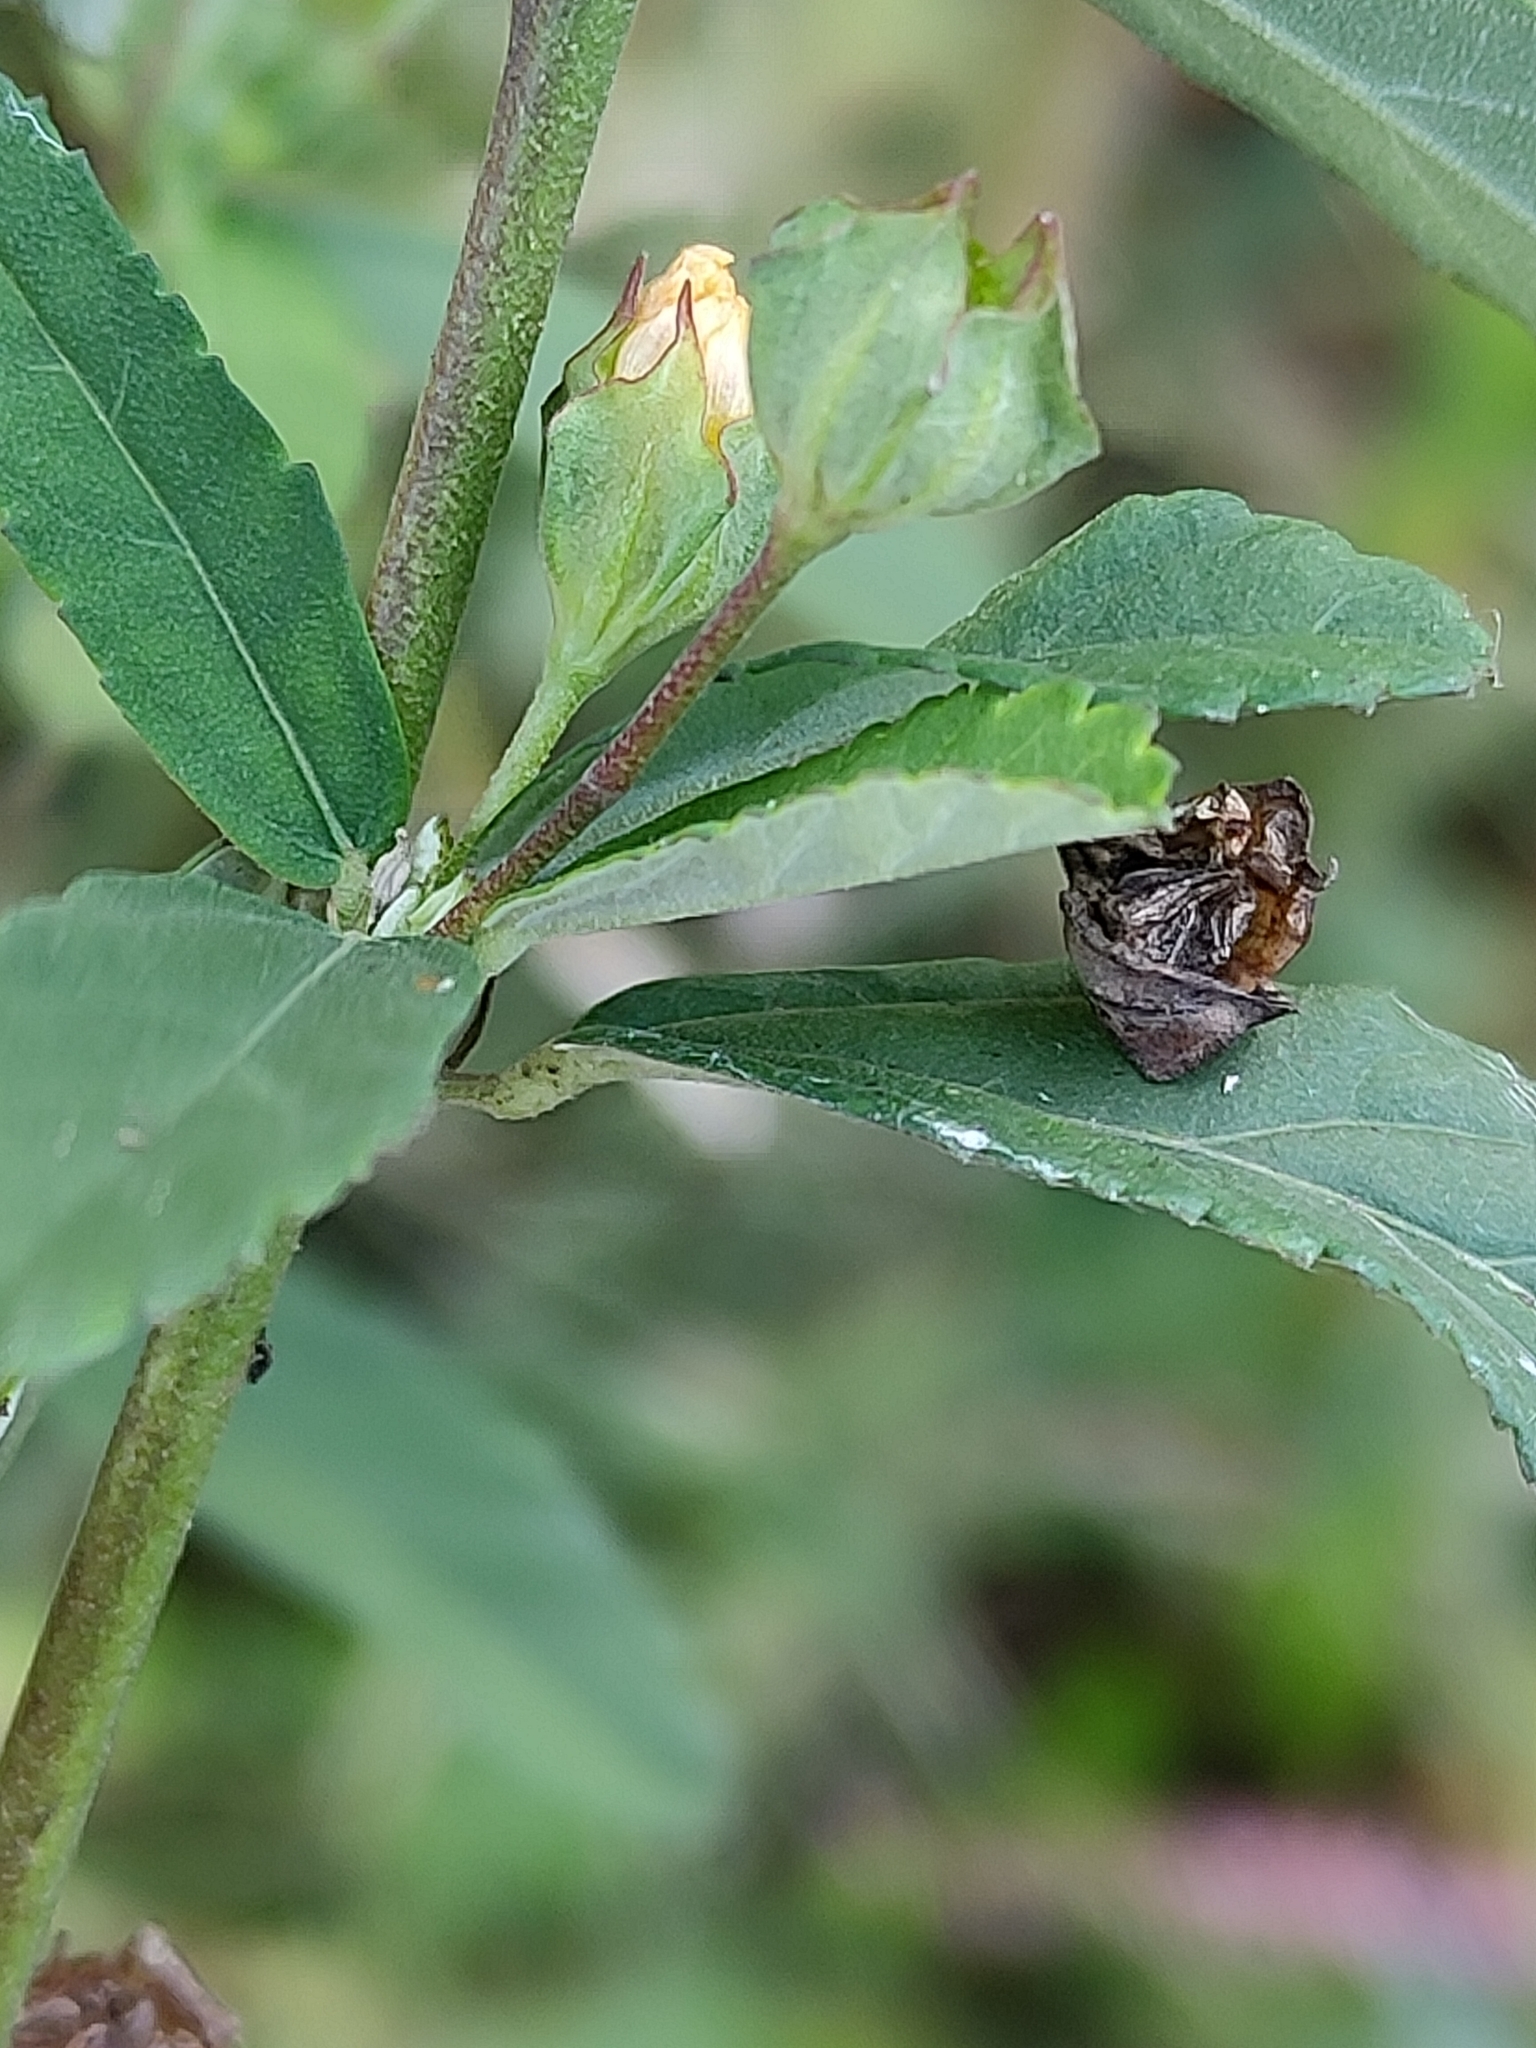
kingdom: Plantae
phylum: Tracheophyta
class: Magnoliopsida
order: Malvales
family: Malvaceae
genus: Sida
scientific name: Sida rhombifolia
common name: Queensland-hemp
